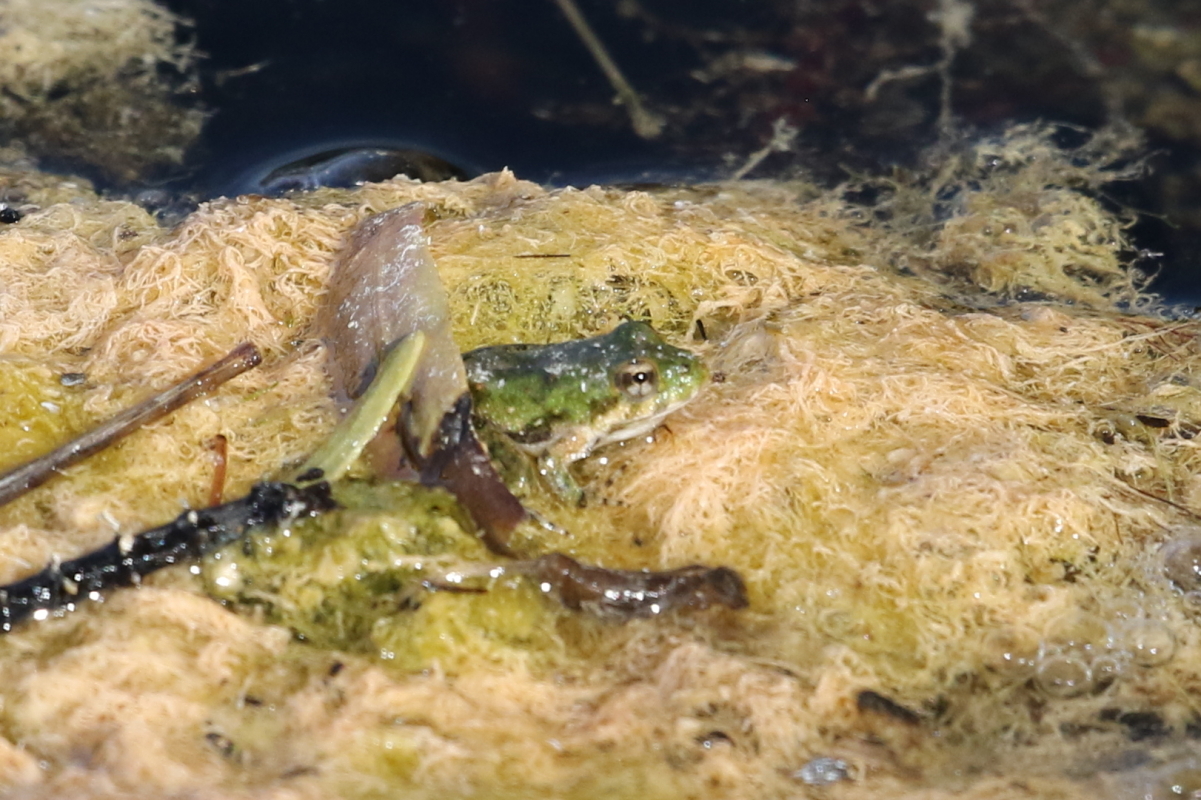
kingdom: Animalia
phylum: Chordata
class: Amphibia
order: Anura
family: Hylidae
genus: Acris
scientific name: Acris blanchardi
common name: Blanchard's cricket frog
